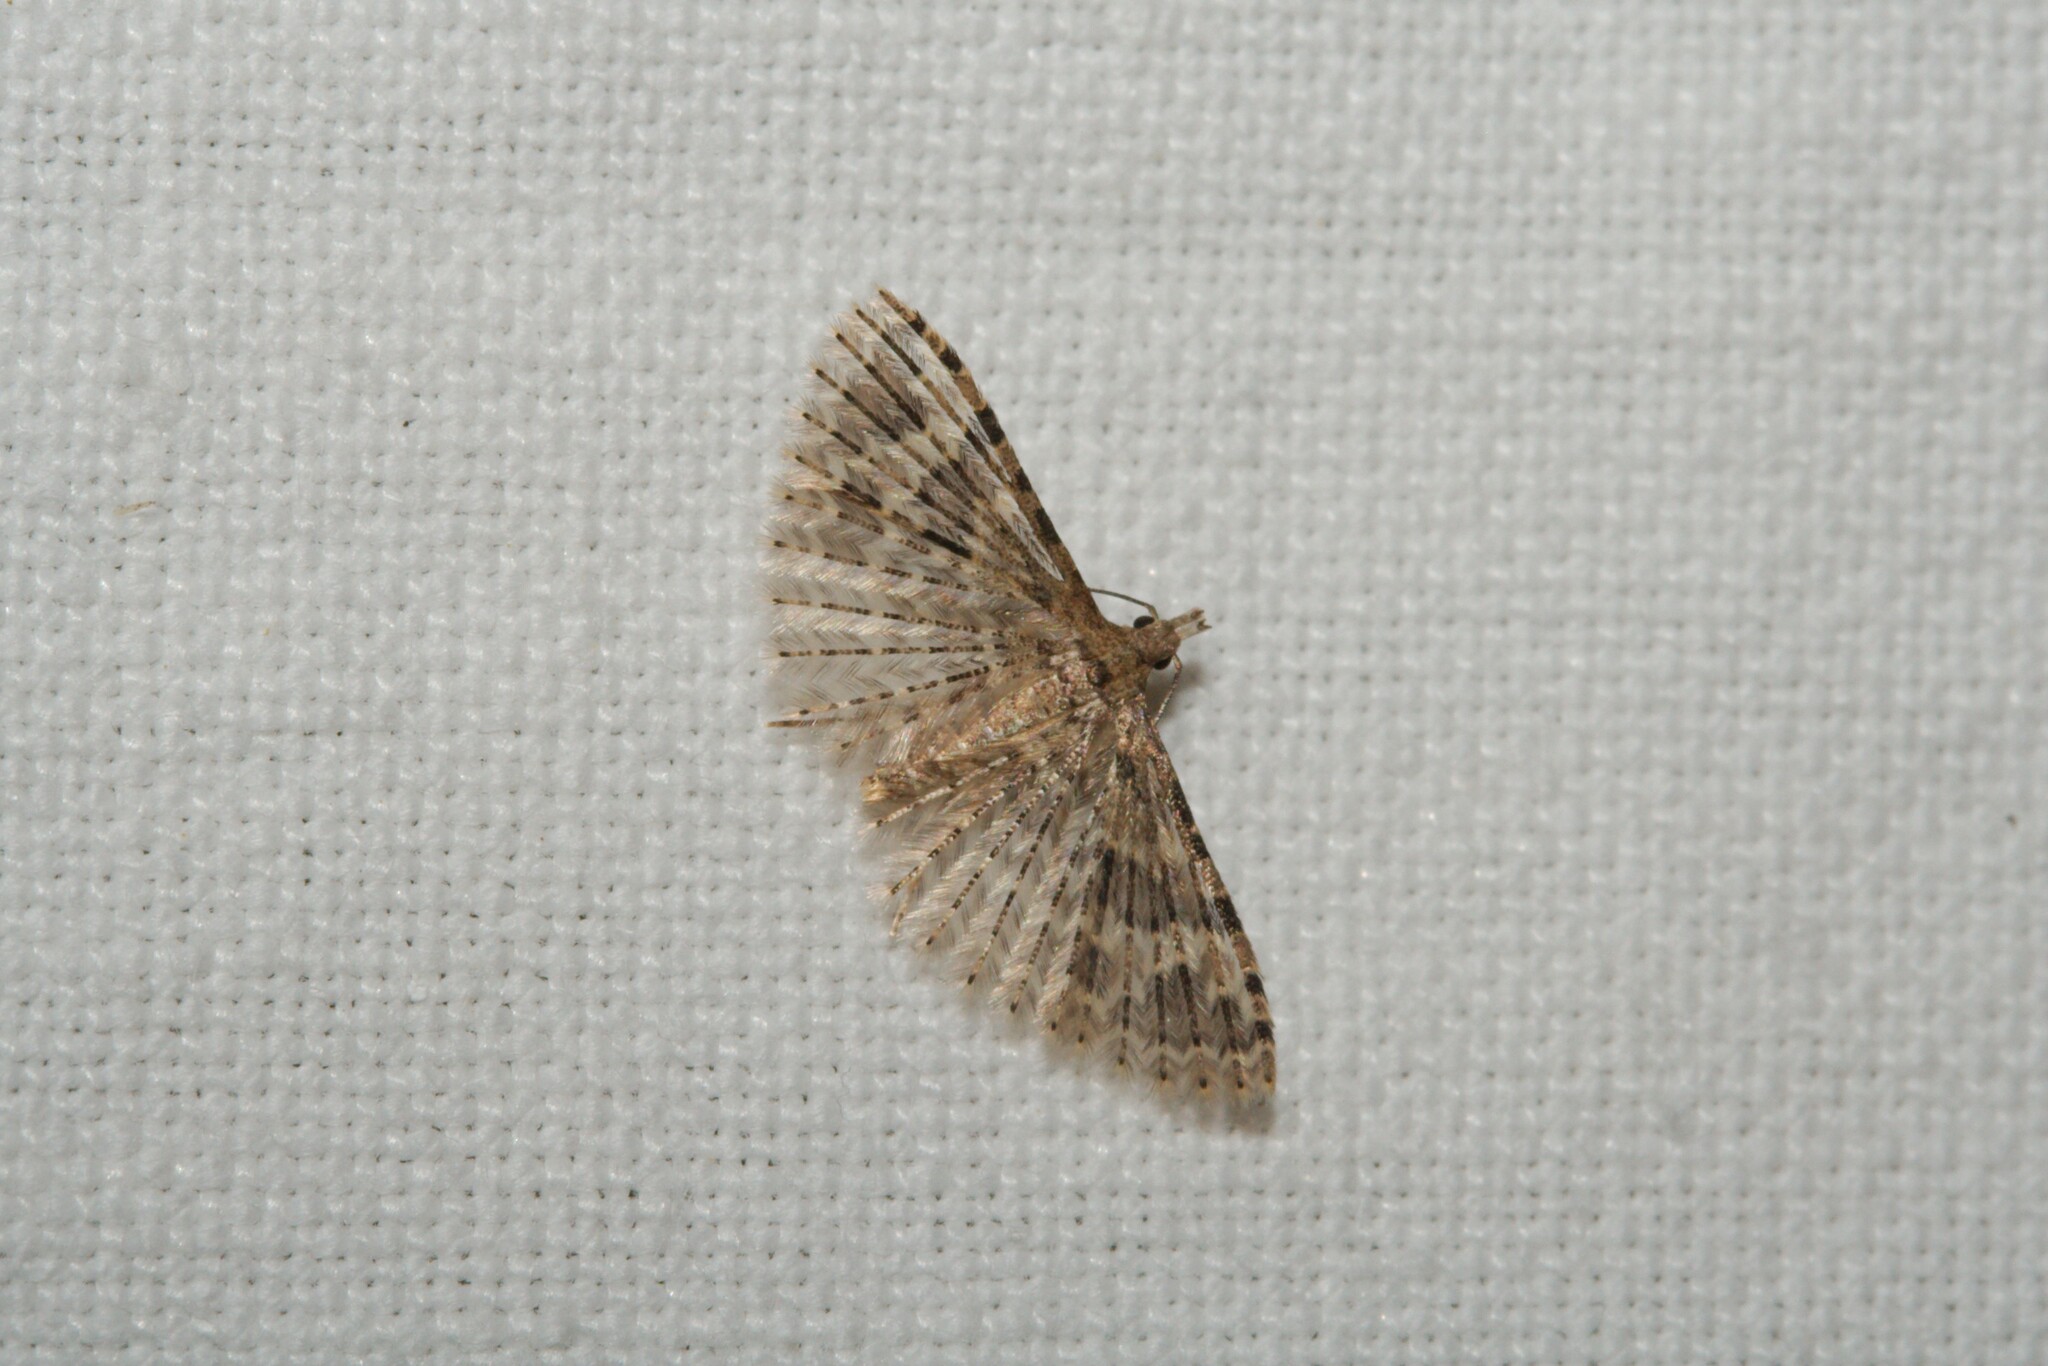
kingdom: Animalia
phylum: Arthropoda
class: Insecta
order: Lepidoptera
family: Alucitidae
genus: Alucita
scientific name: Alucita hexadactyla
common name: Twenty-plume moth
